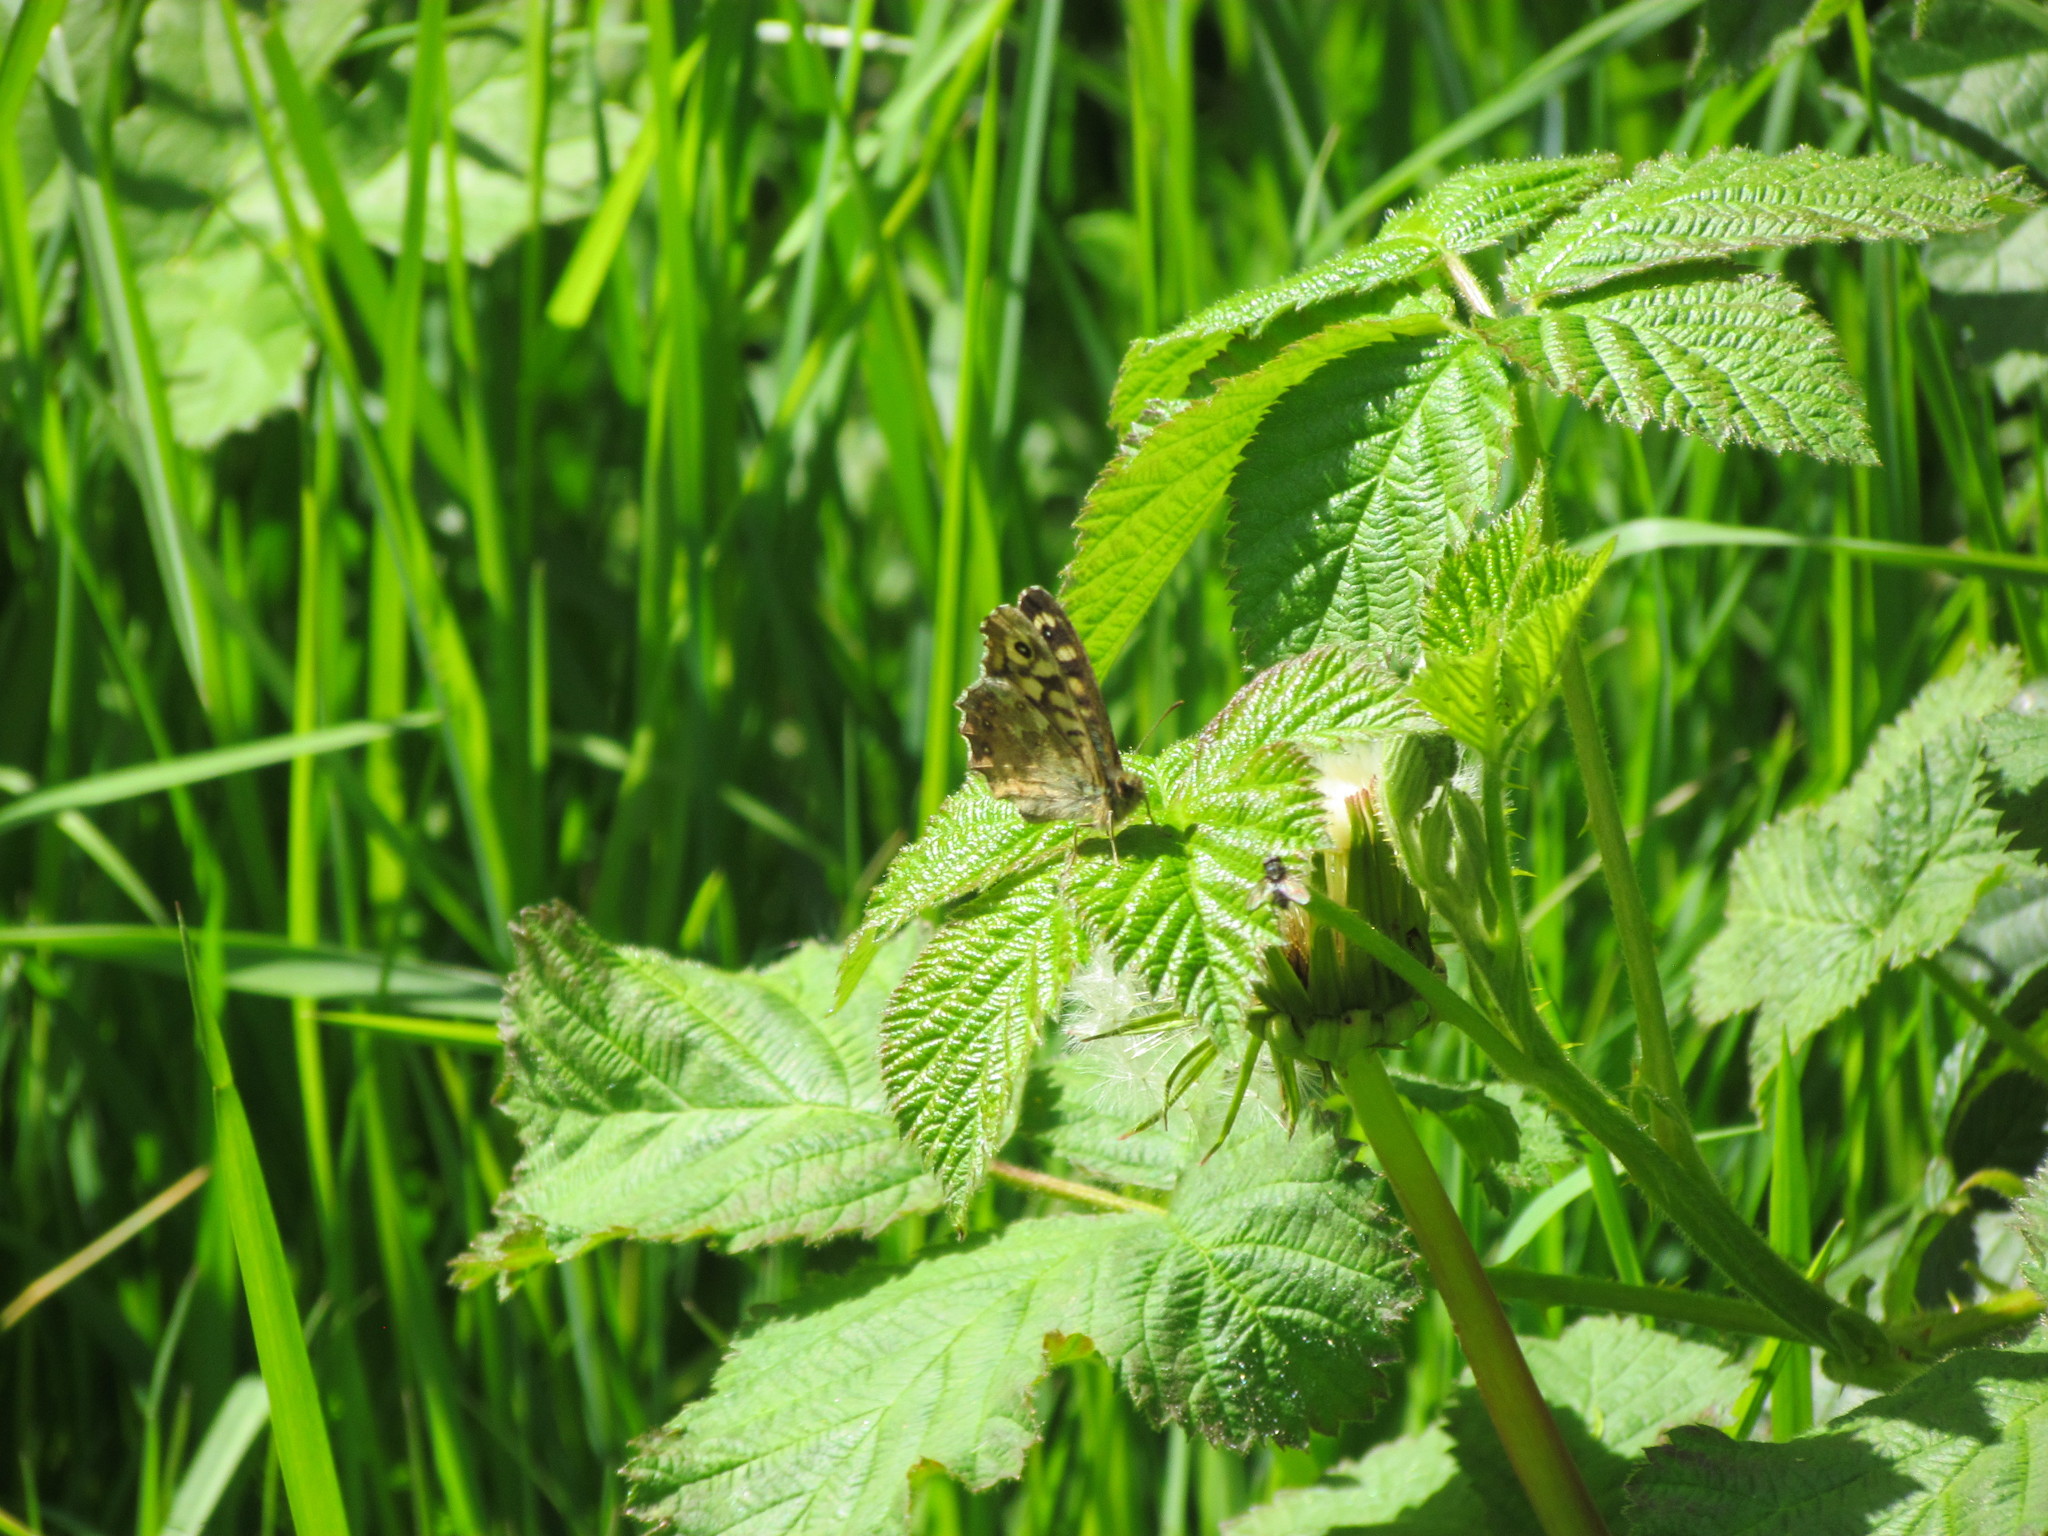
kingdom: Animalia
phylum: Arthropoda
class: Insecta
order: Lepidoptera
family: Nymphalidae
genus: Pararge
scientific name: Pararge aegeria
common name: Speckled wood
